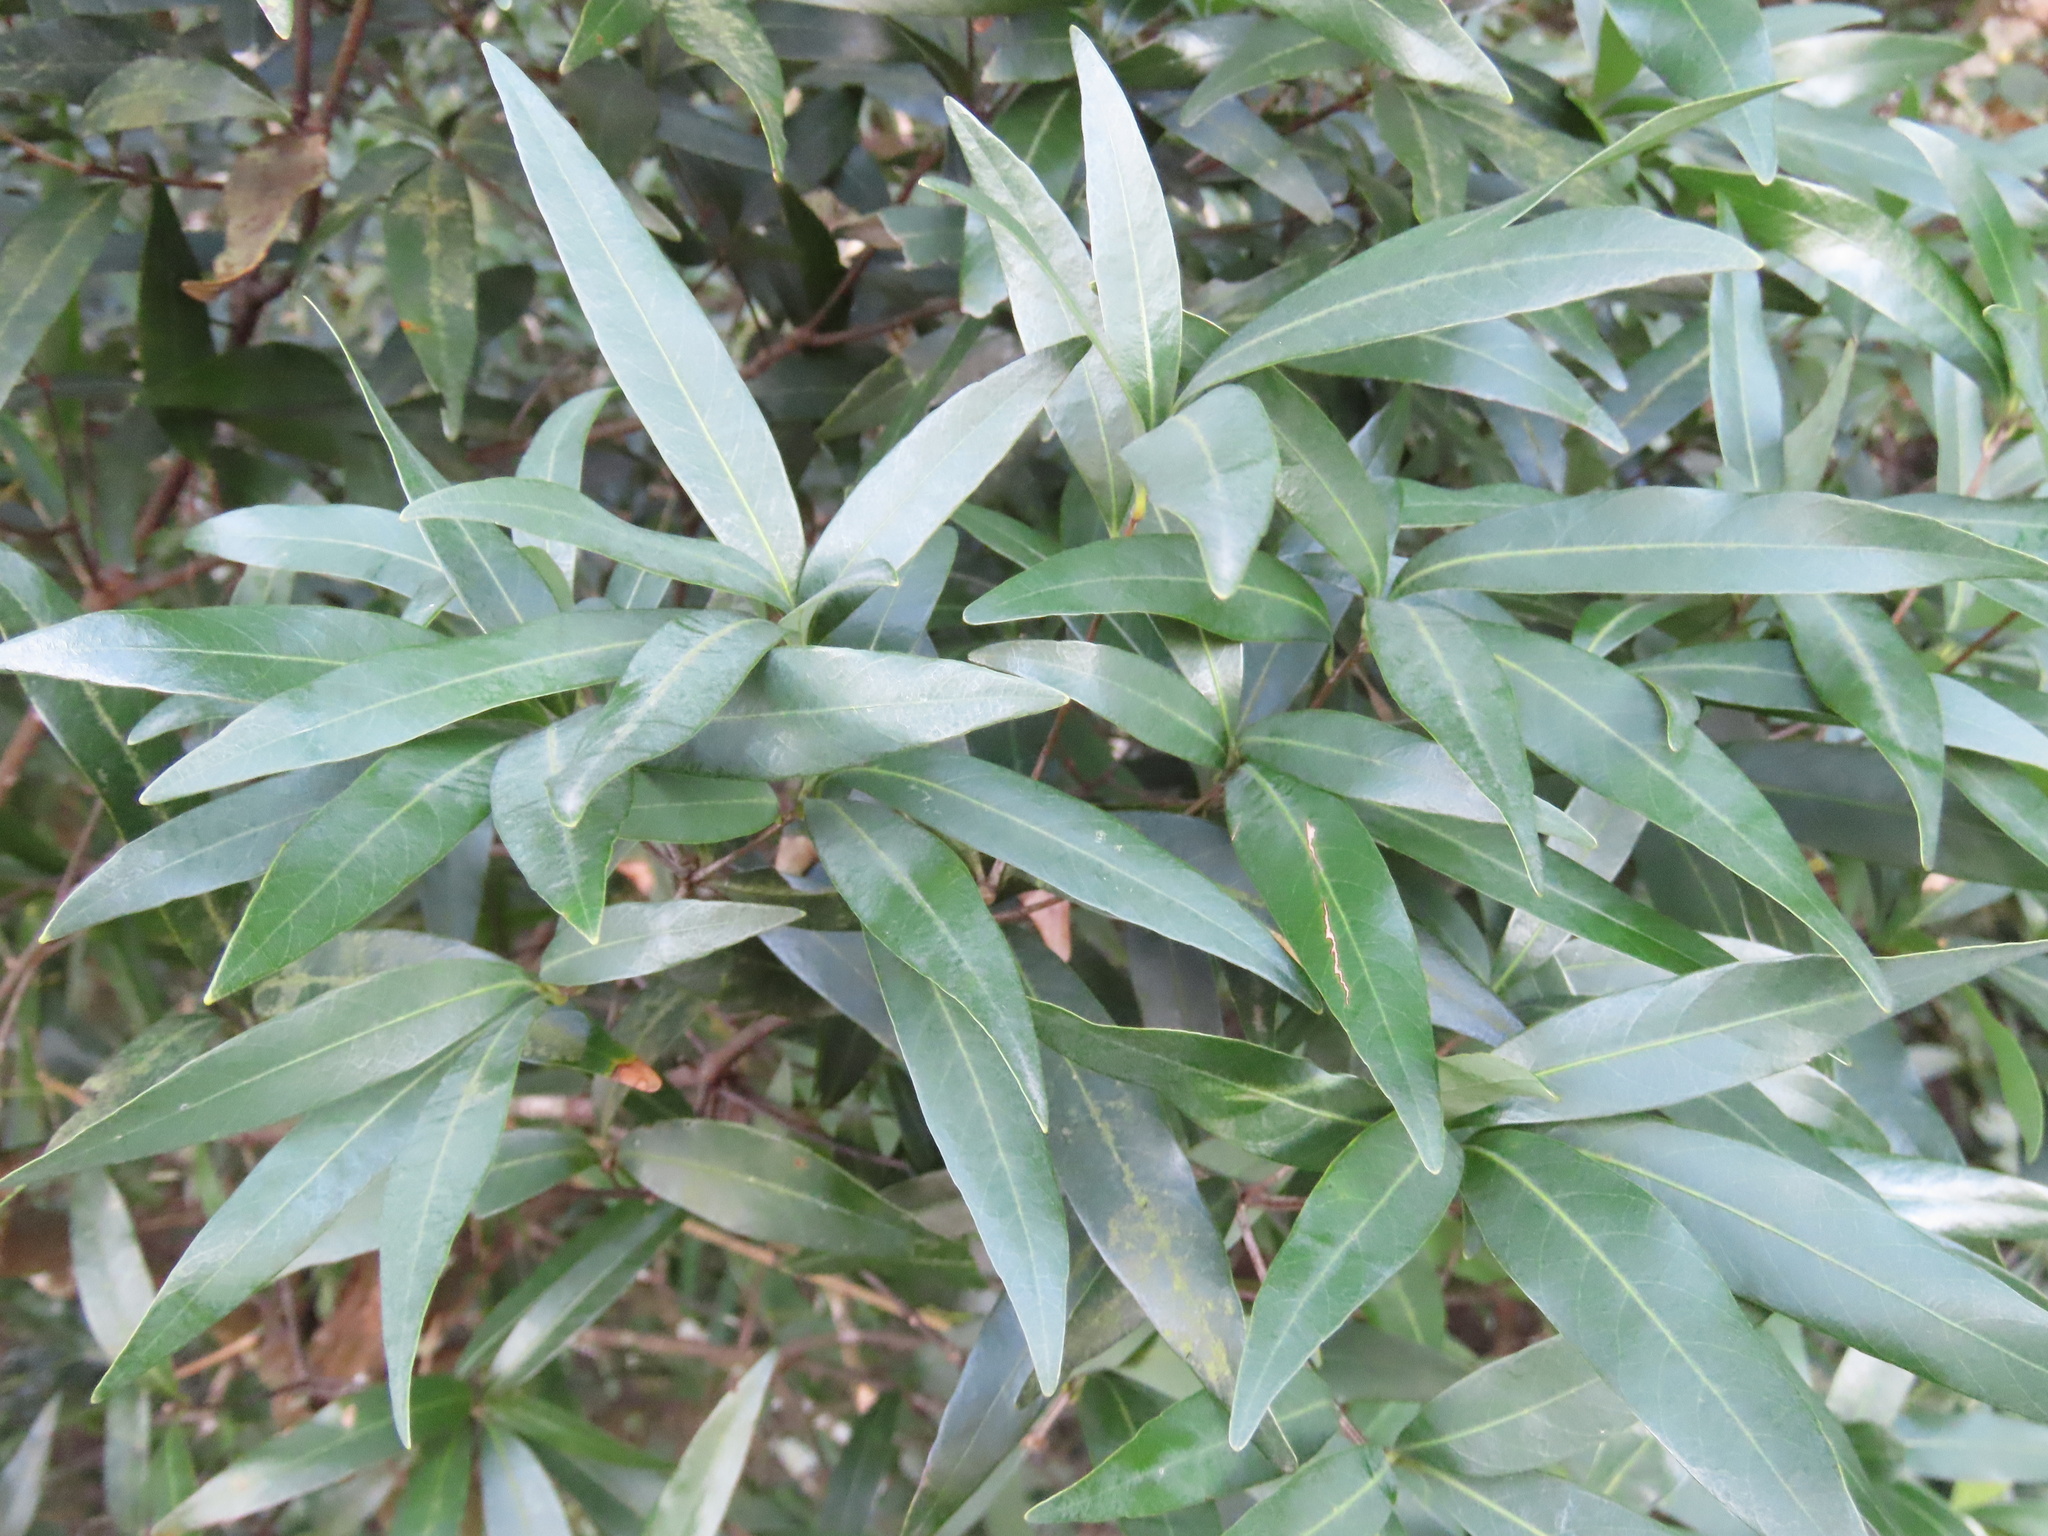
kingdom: Plantae
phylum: Tracheophyta
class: Magnoliopsida
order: Fagales
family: Fagaceae
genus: Quercus
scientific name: Quercus bambusifolia
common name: Bamboo-leaf oak
